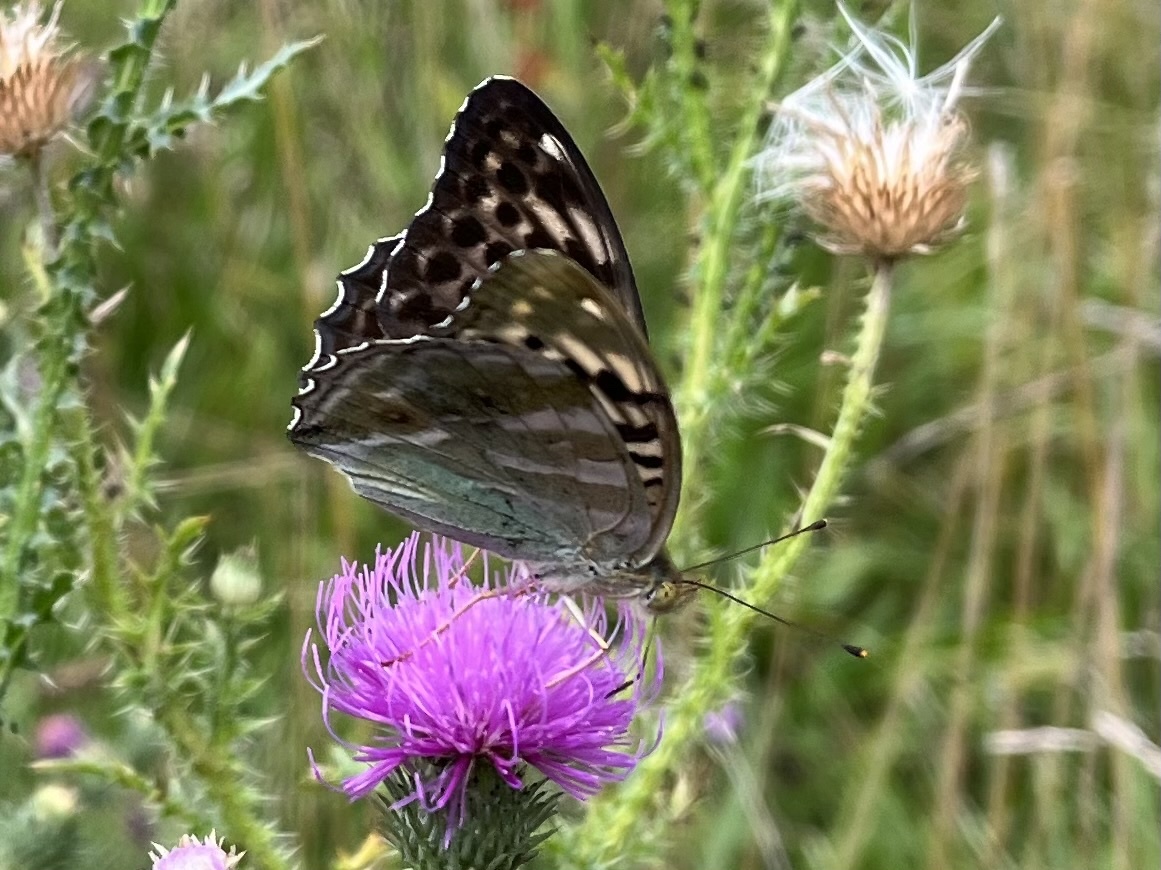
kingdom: Animalia
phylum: Arthropoda
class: Insecta
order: Lepidoptera
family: Nymphalidae
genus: Argynnis
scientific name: Argynnis paphia
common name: Silver-washed fritillary
